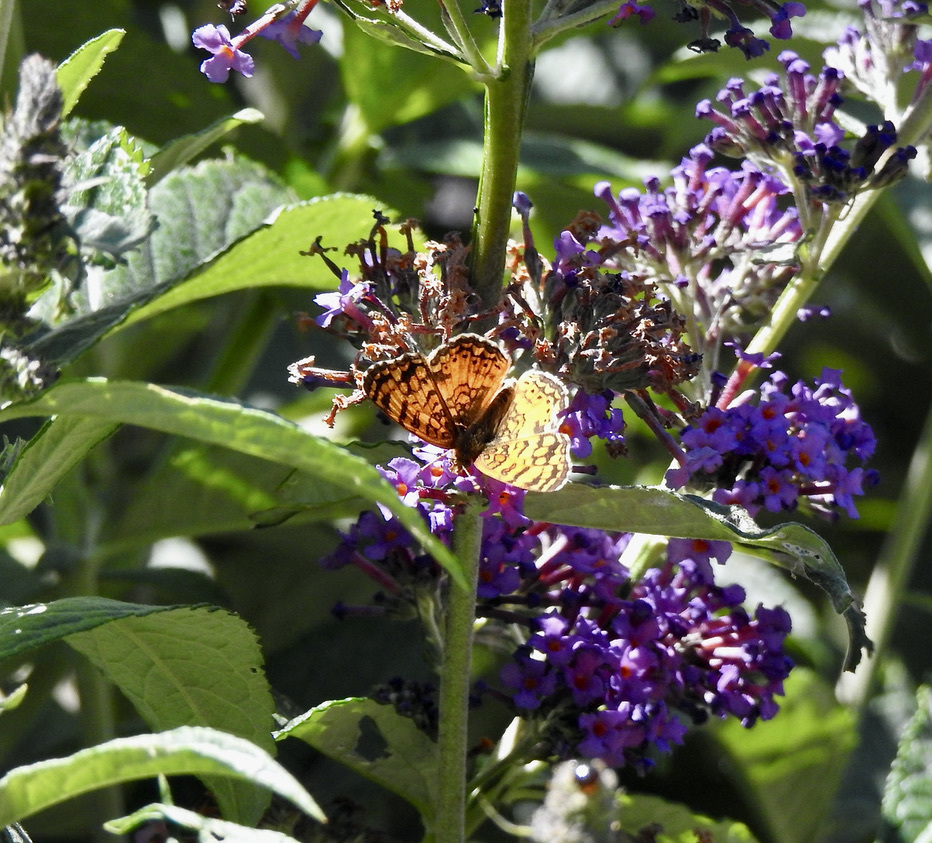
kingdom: Animalia
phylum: Arthropoda
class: Insecta
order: Lepidoptera
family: Nymphalidae
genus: Eresia
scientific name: Eresia aveyrona
